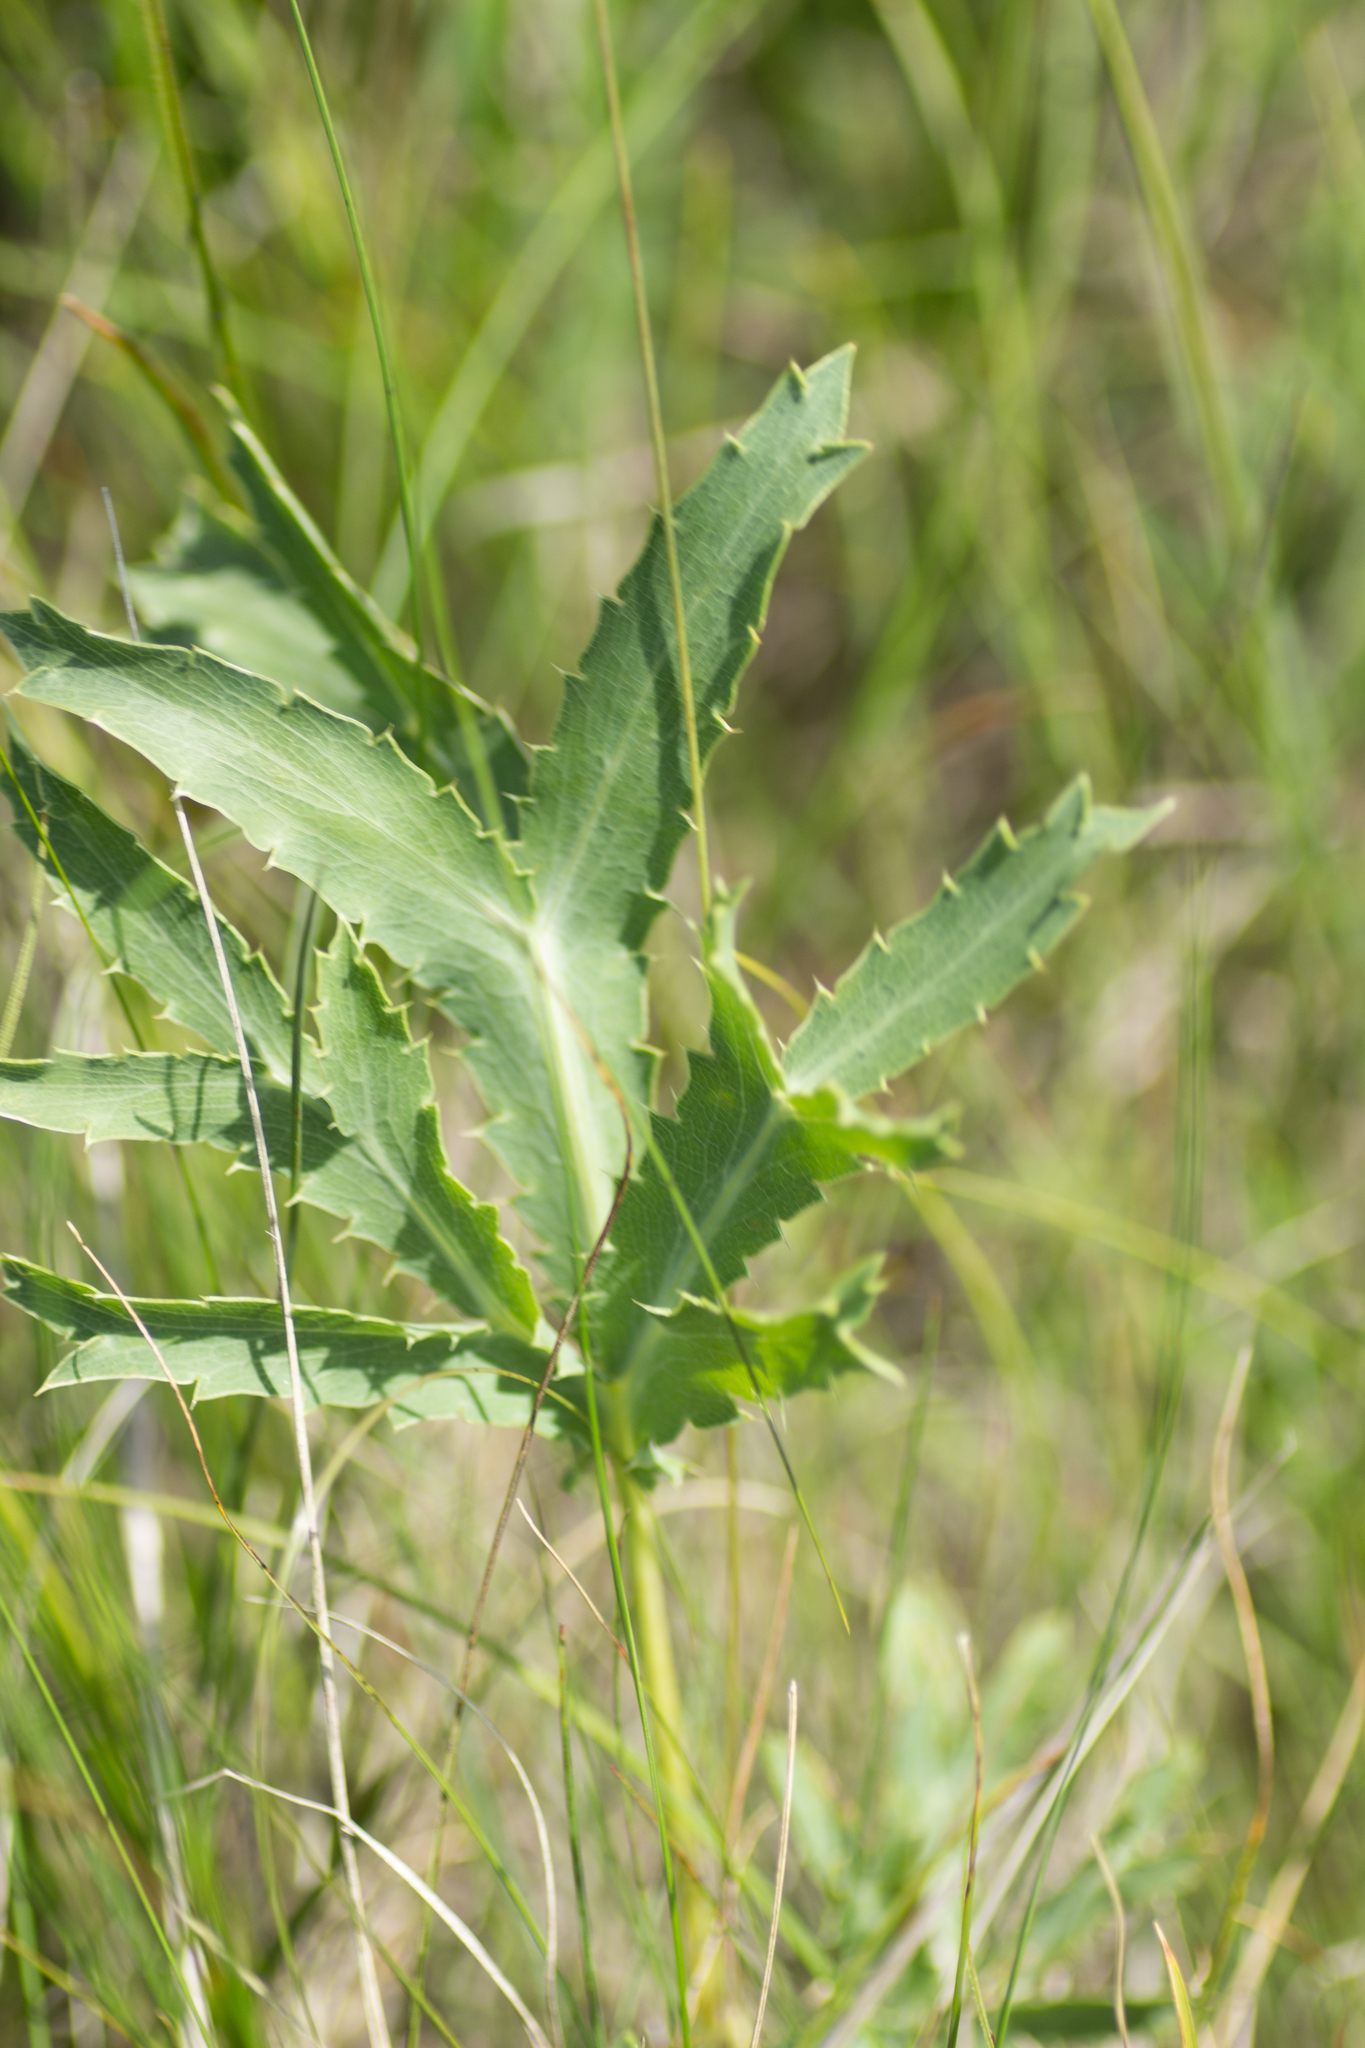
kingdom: Plantae
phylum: Tracheophyta
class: Magnoliopsida
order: Apiales
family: Apiaceae
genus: Eryngium
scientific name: Eryngium campestre
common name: Field eryngo
